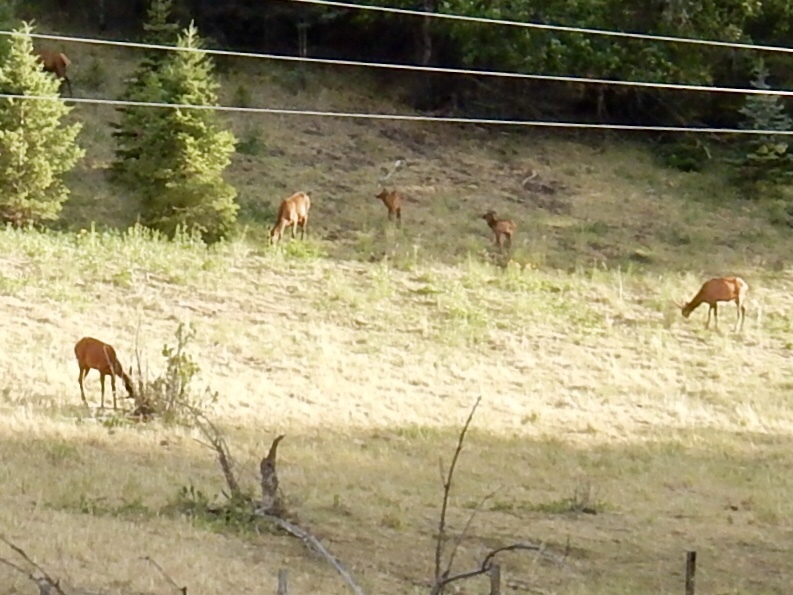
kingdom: Animalia
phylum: Chordata
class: Mammalia
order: Artiodactyla
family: Cervidae
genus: Cervus
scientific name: Cervus elaphus
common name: Red deer
